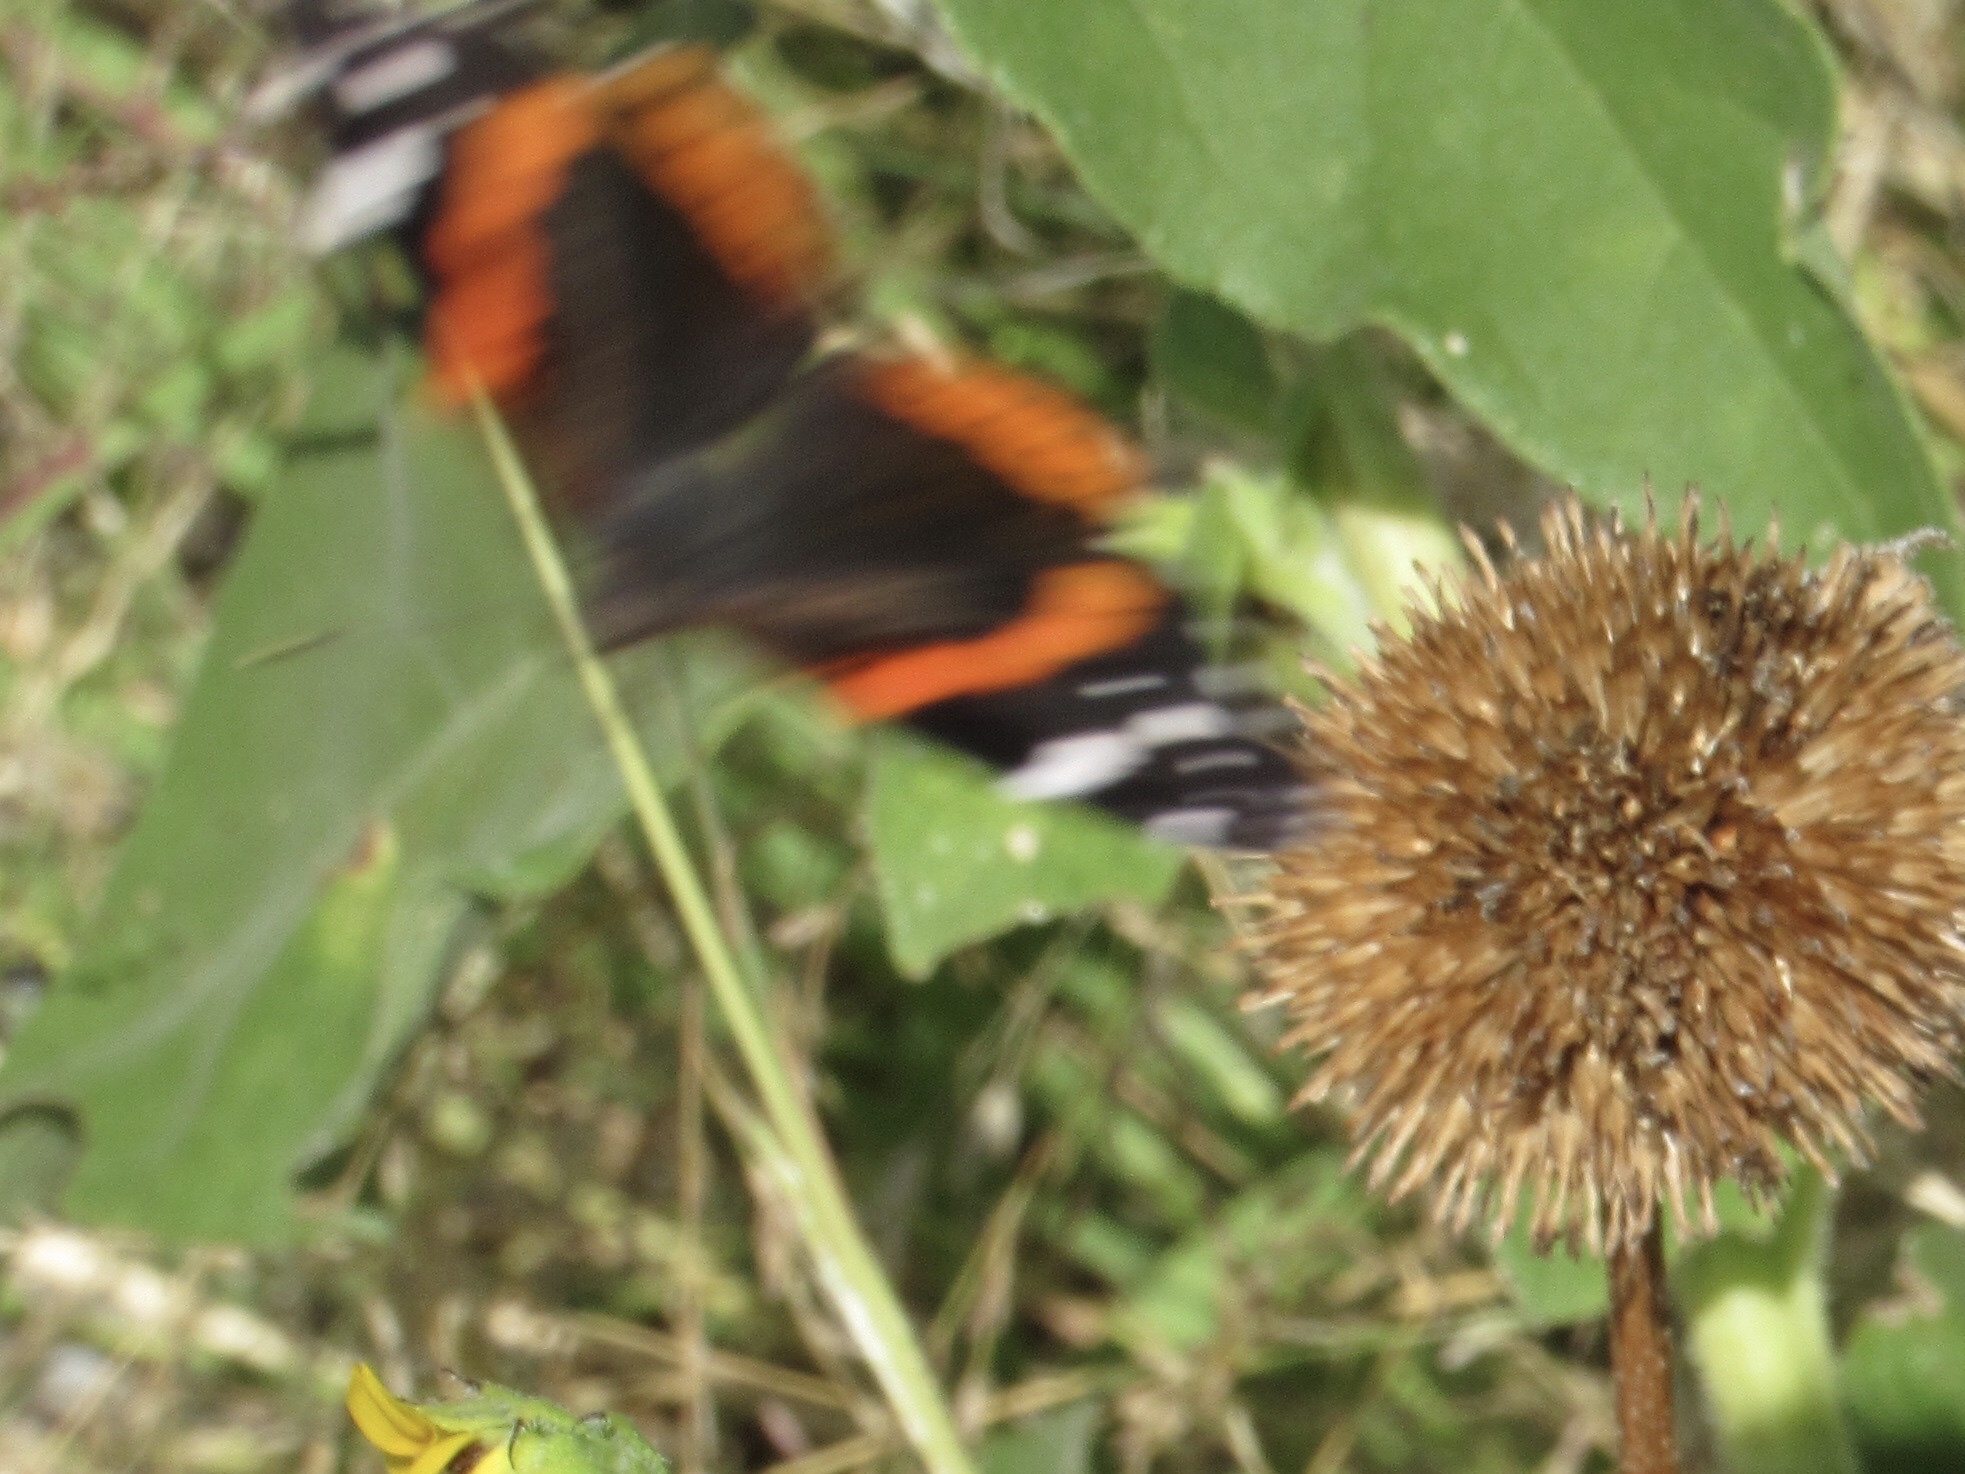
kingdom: Animalia
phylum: Arthropoda
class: Insecta
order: Lepidoptera
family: Nymphalidae
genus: Vanessa
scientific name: Vanessa atalanta
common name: Red admiral
